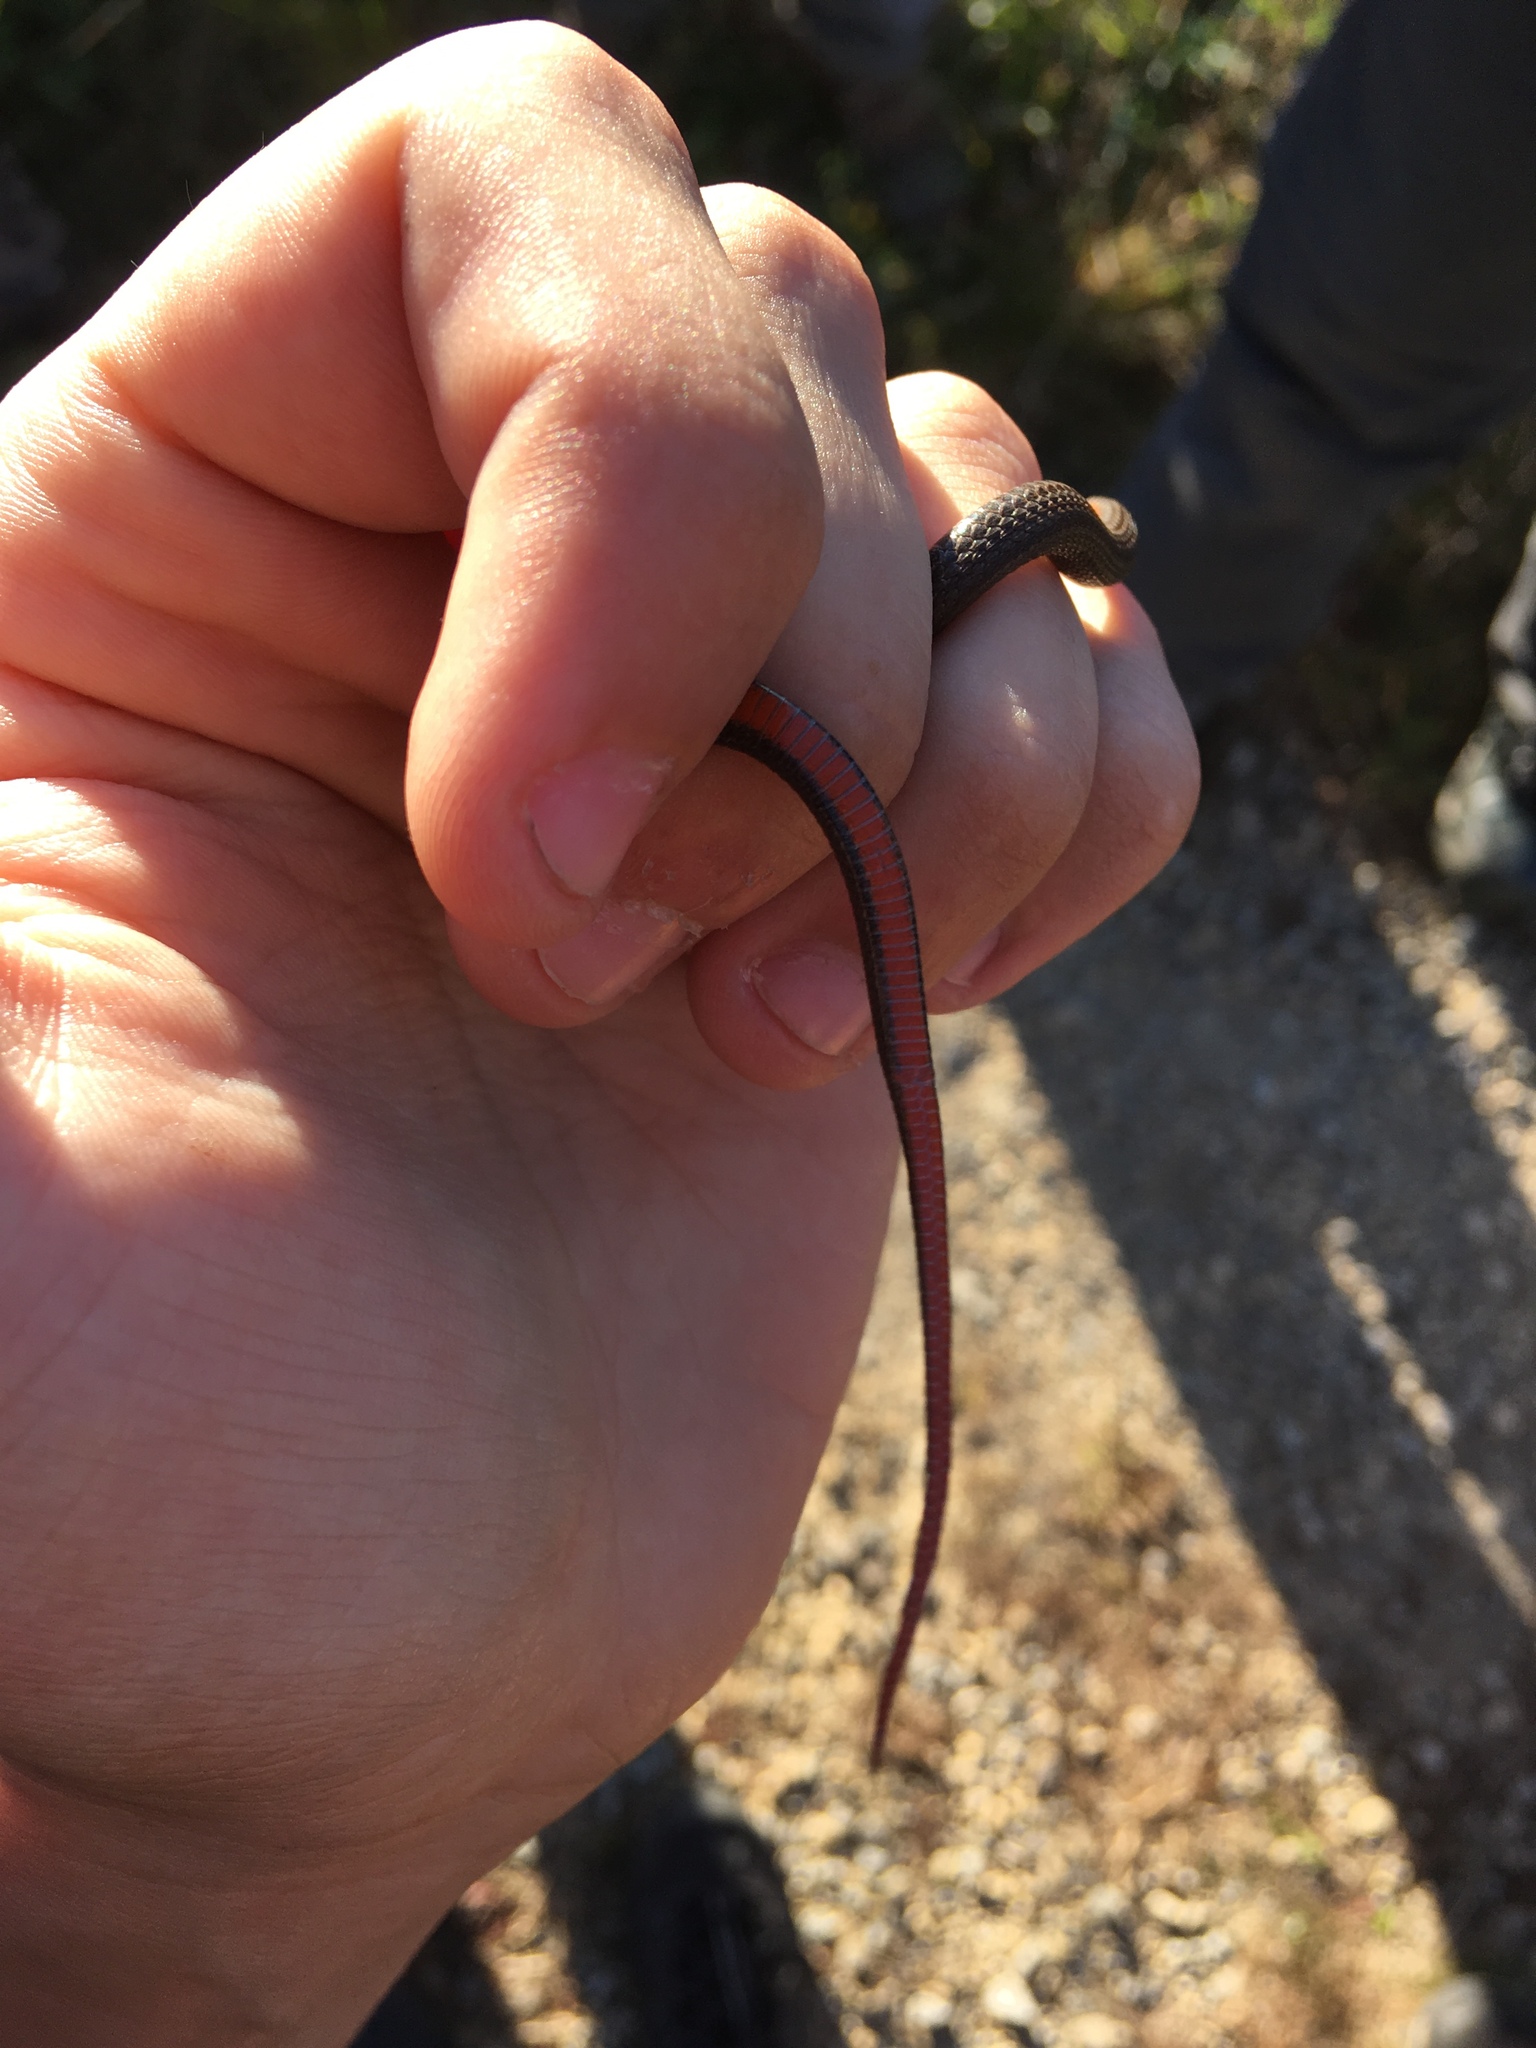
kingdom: Animalia
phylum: Chordata
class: Squamata
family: Colubridae
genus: Storeria
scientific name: Storeria occipitomaculata
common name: Redbelly snake
